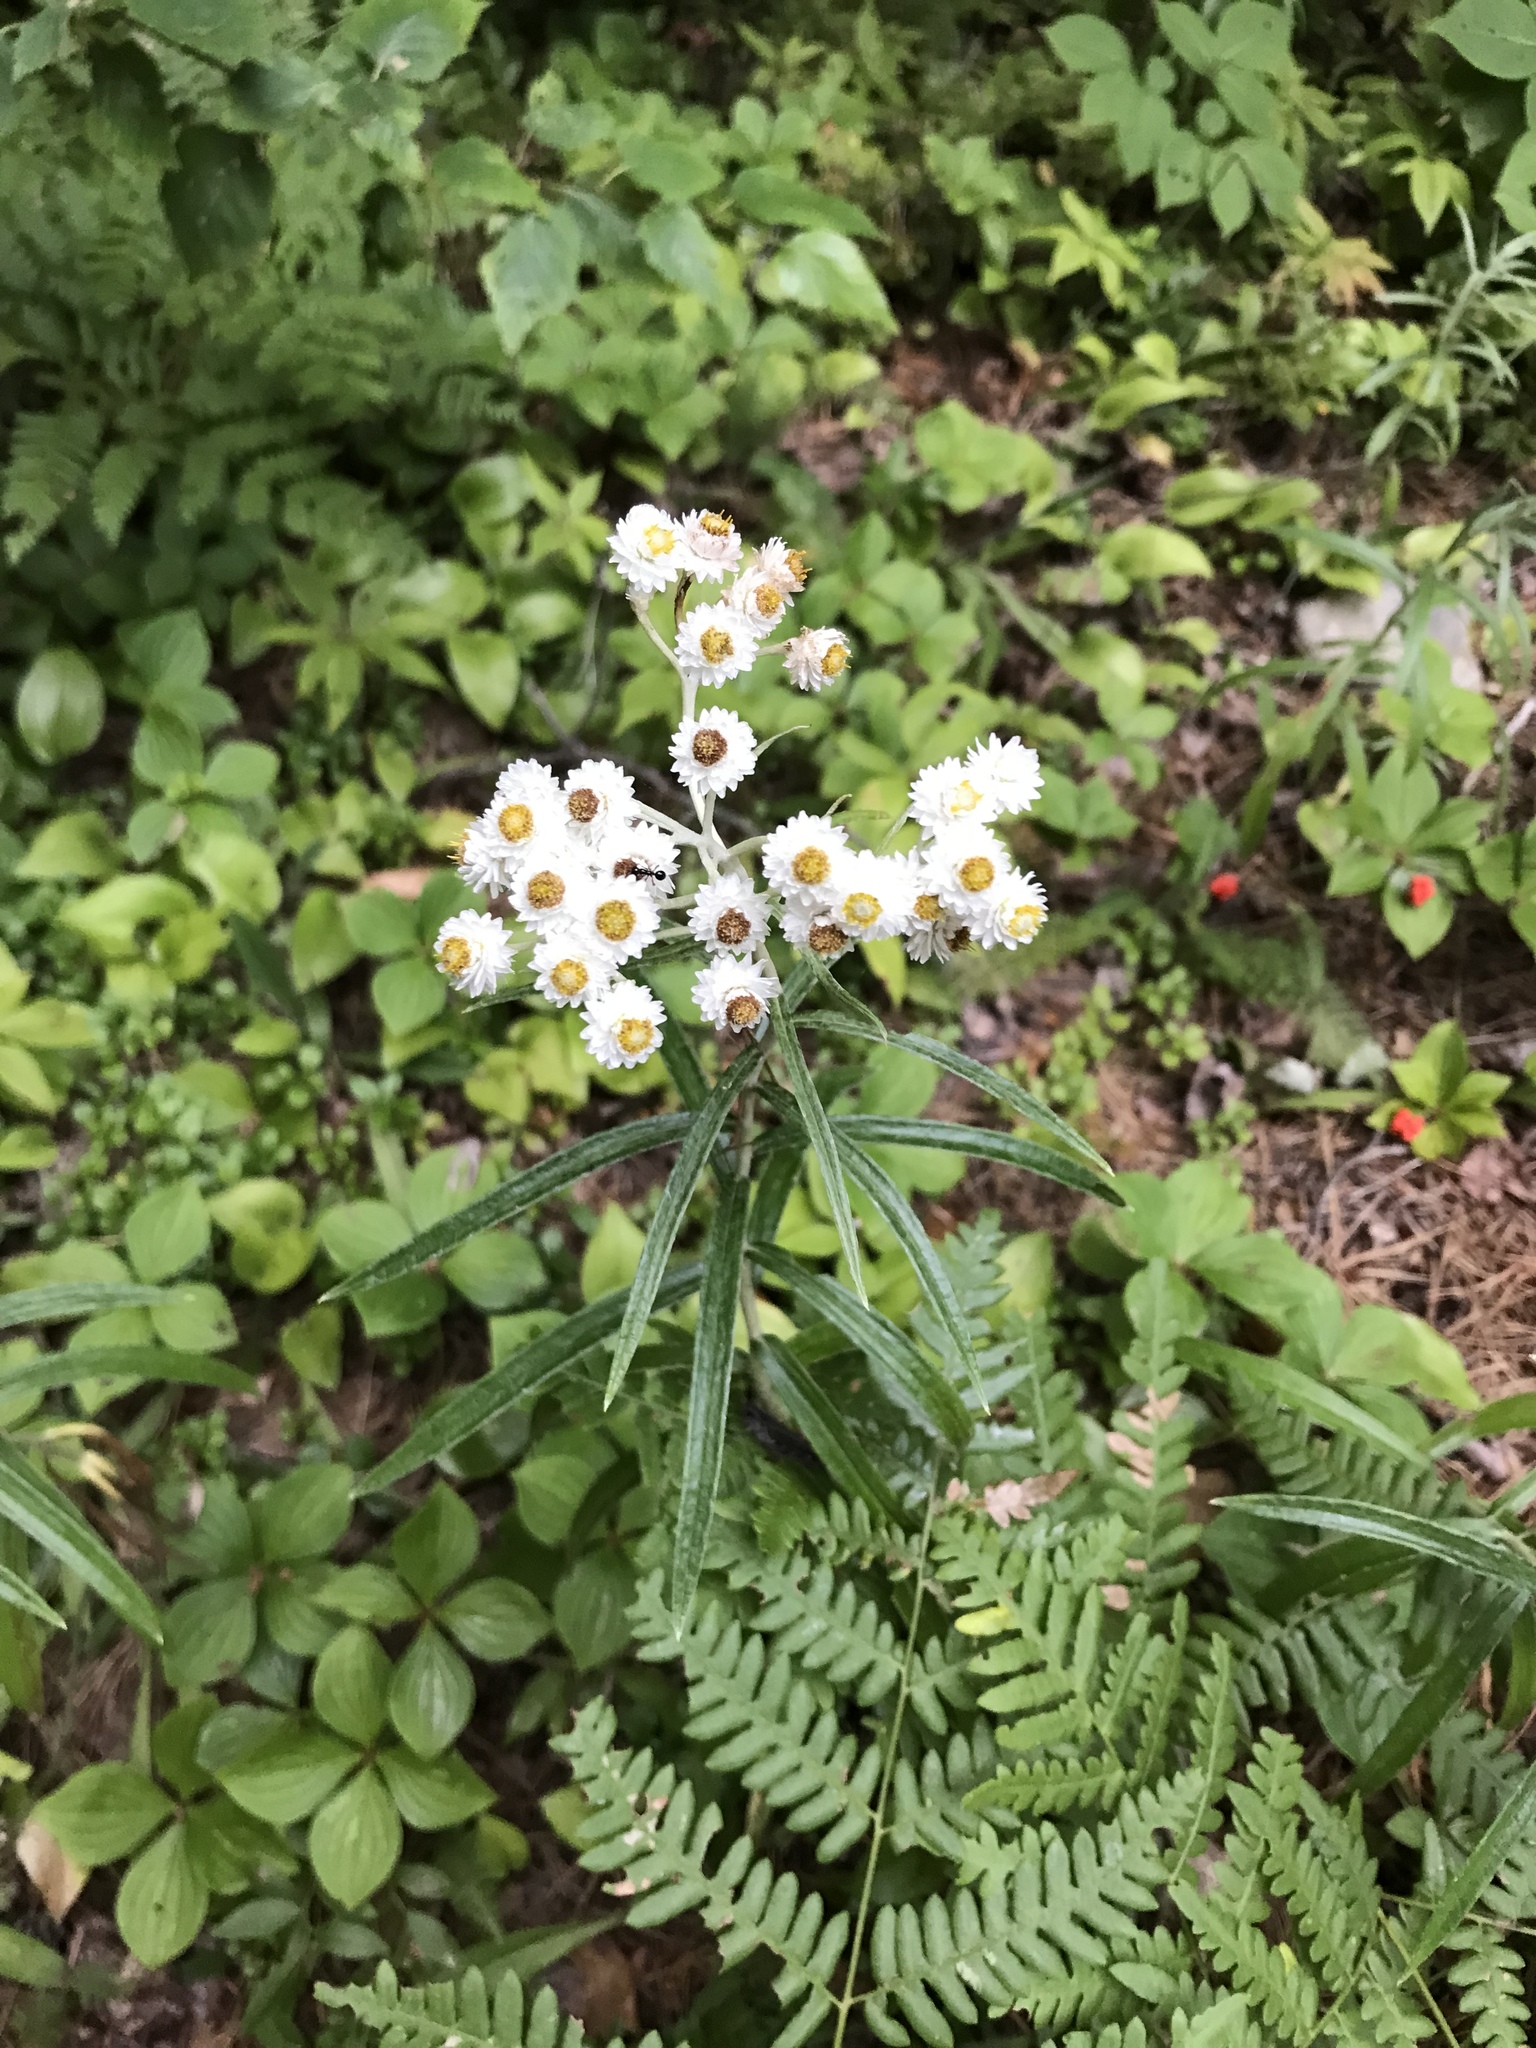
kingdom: Plantae
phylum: Tracheophyta
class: Magnoliopsida
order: Asterales
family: Asteraceae
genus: Anaphalis
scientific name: Anaphalis margaritacea
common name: Pearly everlasting
